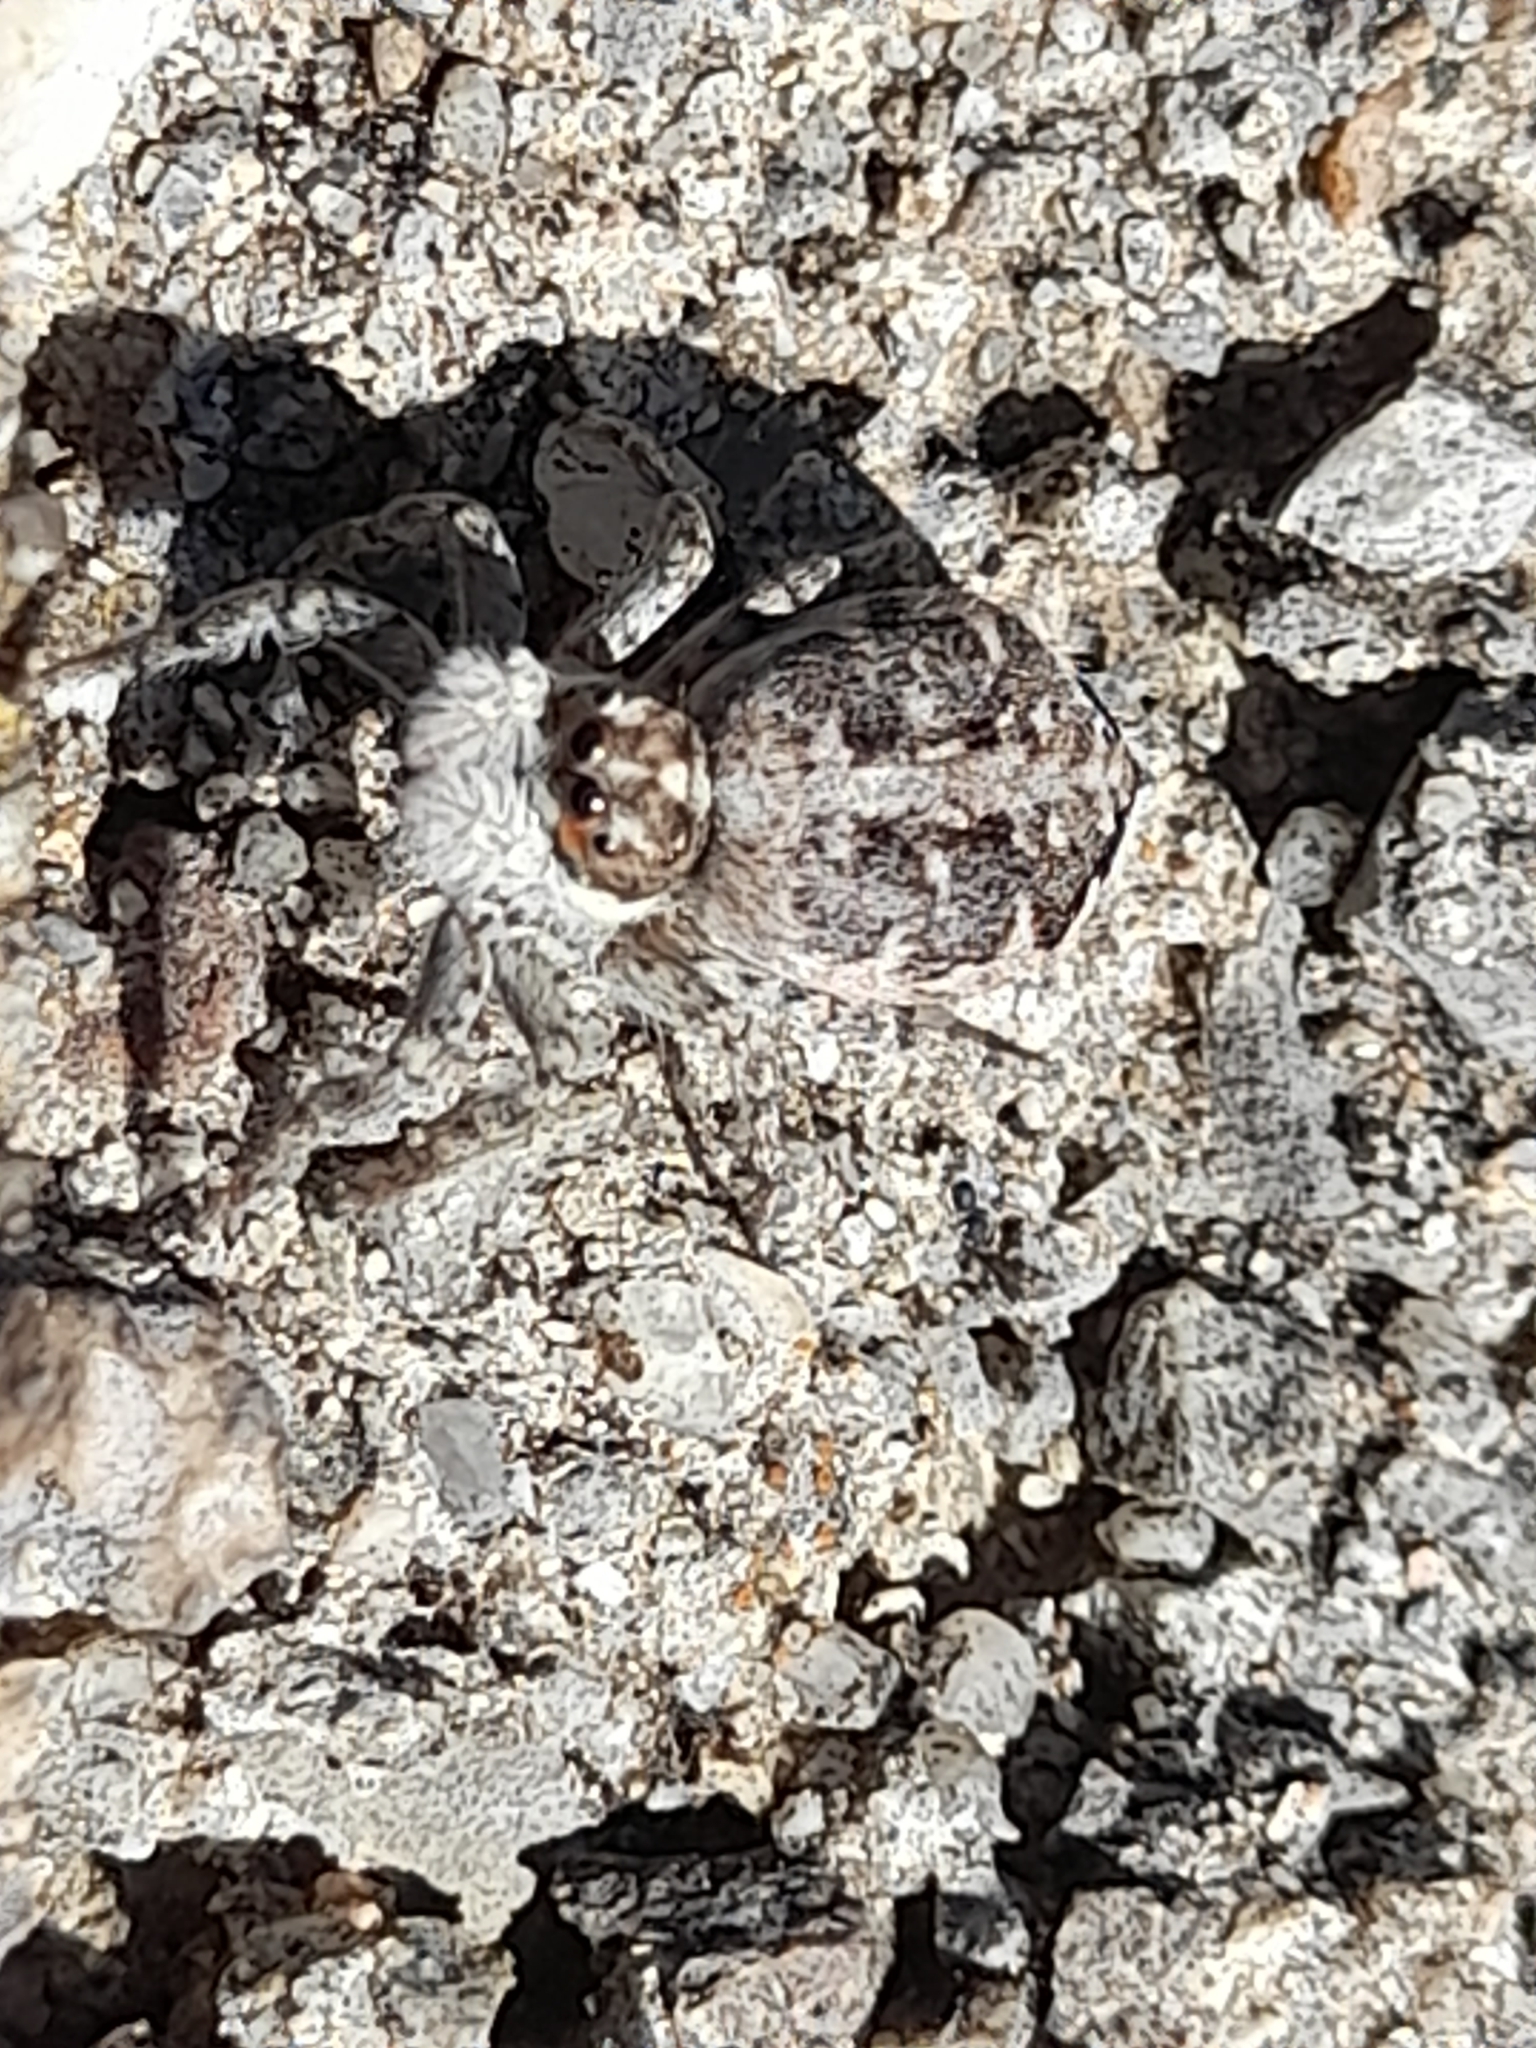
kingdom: Animalia
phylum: Arthropoda
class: Arachnida
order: Araneae
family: Salticidae
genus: Menemerus
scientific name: Menemerus semilimbatus
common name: Jumping spider
